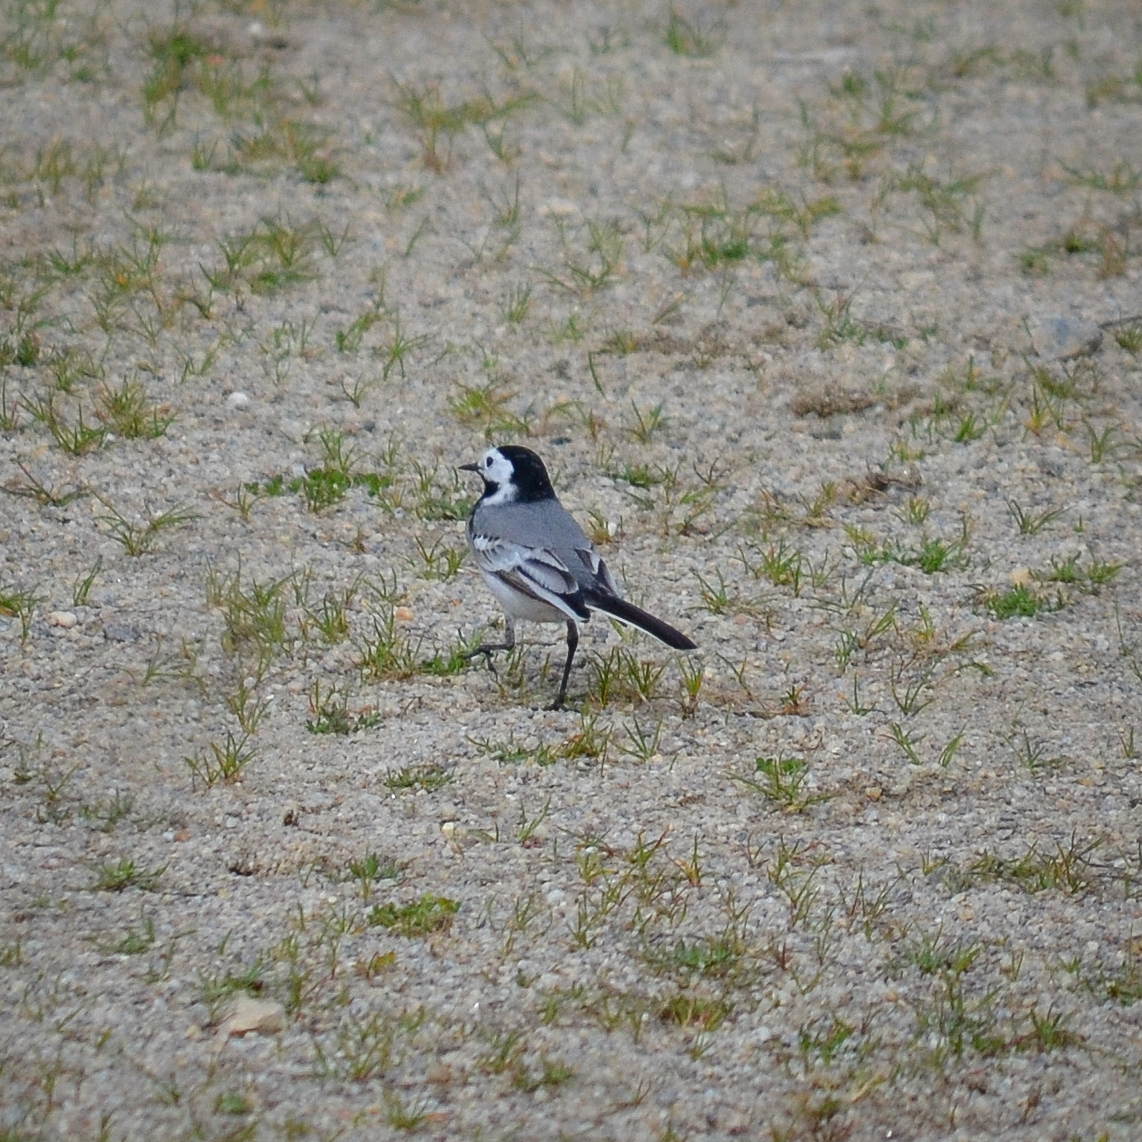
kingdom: Animalia
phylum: Chordata
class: Aves
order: Passeriformes
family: Motacillidae
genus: Motacilla
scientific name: Motacilla alba
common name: White wagtail
